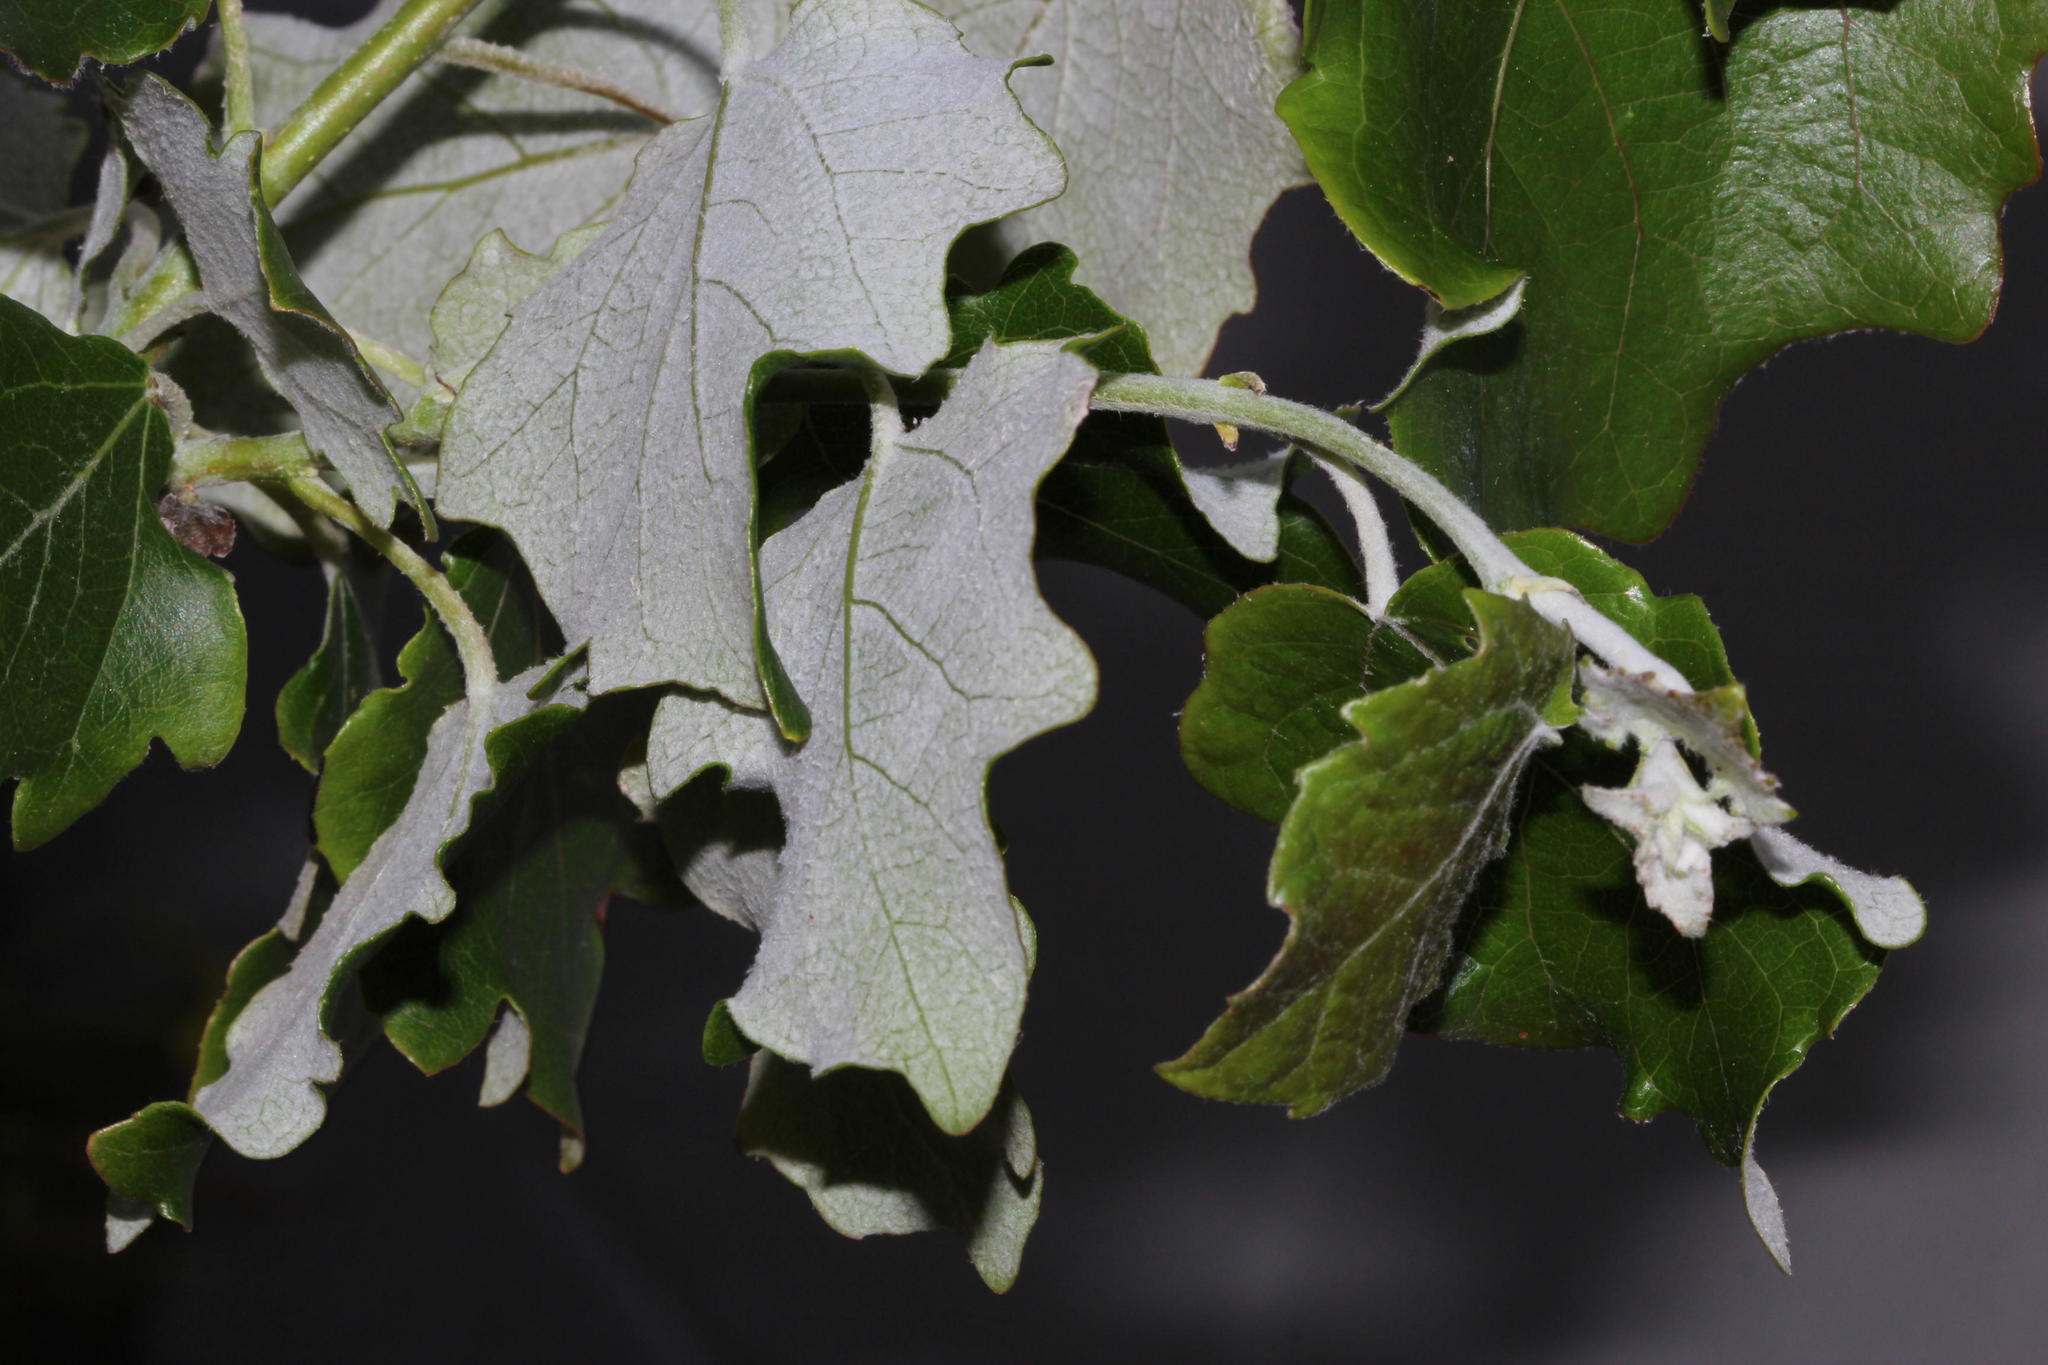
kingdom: Plantae
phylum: Tracheophyta
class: Magnoliopsida
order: Malpighiales
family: Salicaceae
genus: Populus
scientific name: Populus canescens
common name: Gray poplar
